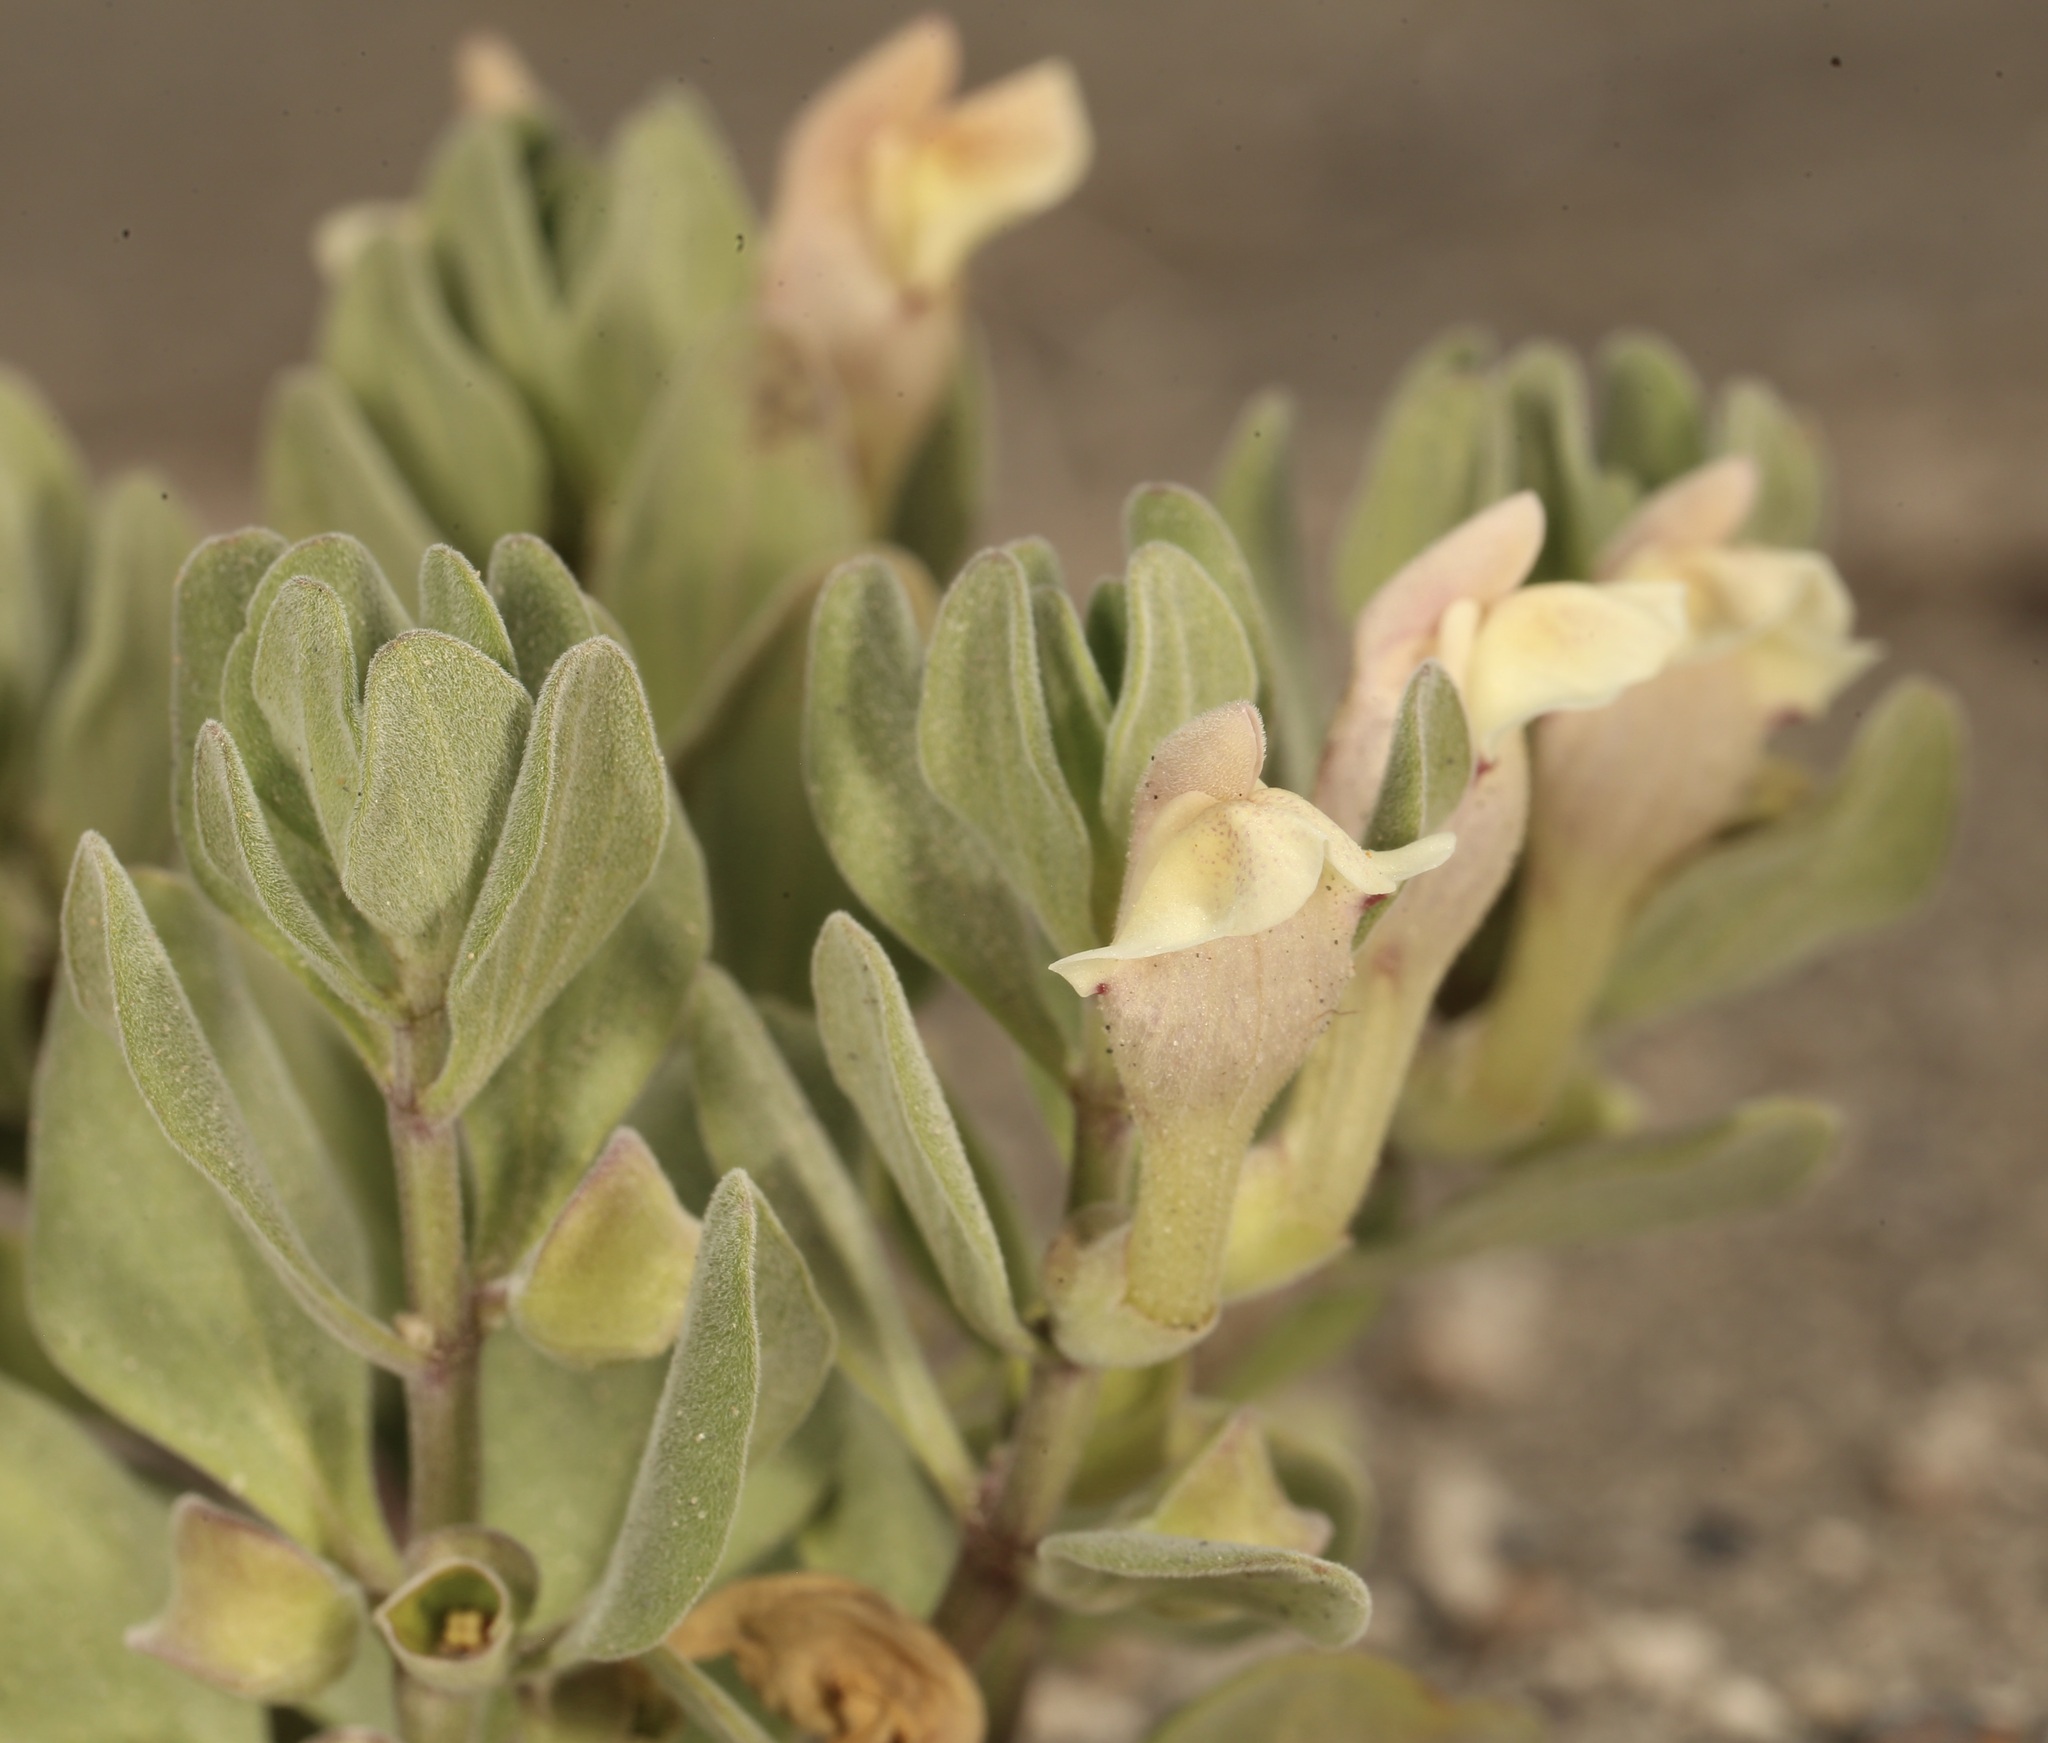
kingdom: Plantae
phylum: Tracheophyta
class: Magnoliopsida
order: Lamiales
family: Lamiaceae
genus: Scutellaria
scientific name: Scutellaria nana
